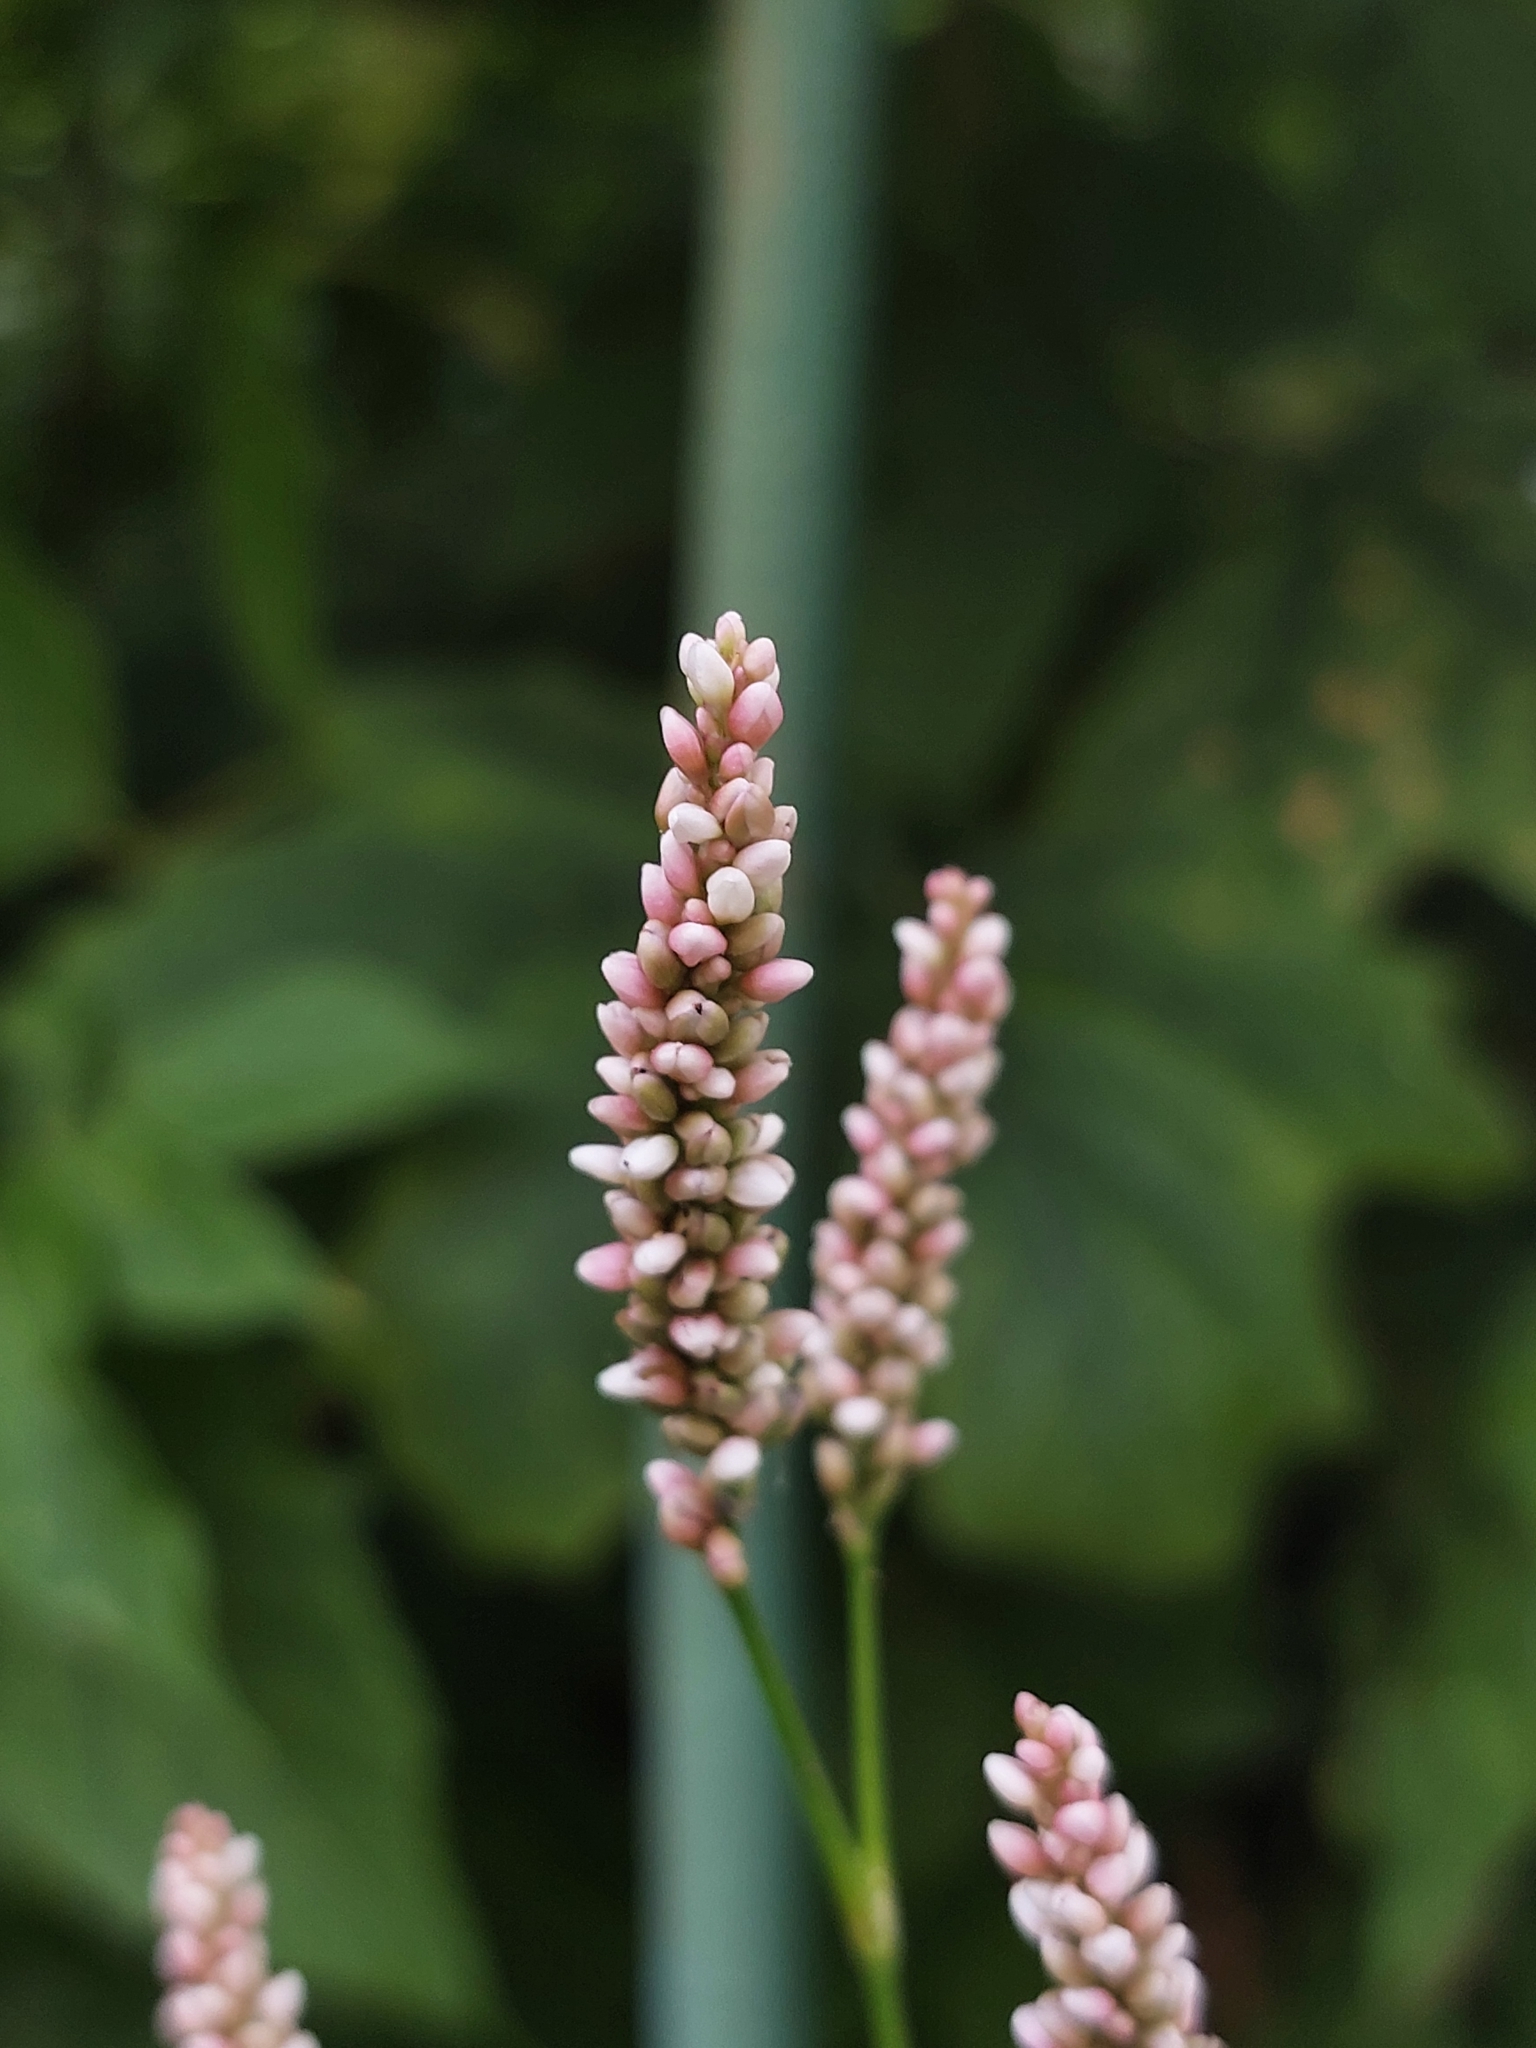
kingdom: Plantae
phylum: Tracheophyta
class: Magnoliopsida
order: Caryophyllales
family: Polygonaceae
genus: Persicaria
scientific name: Persicaria maculosa
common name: Redshank
